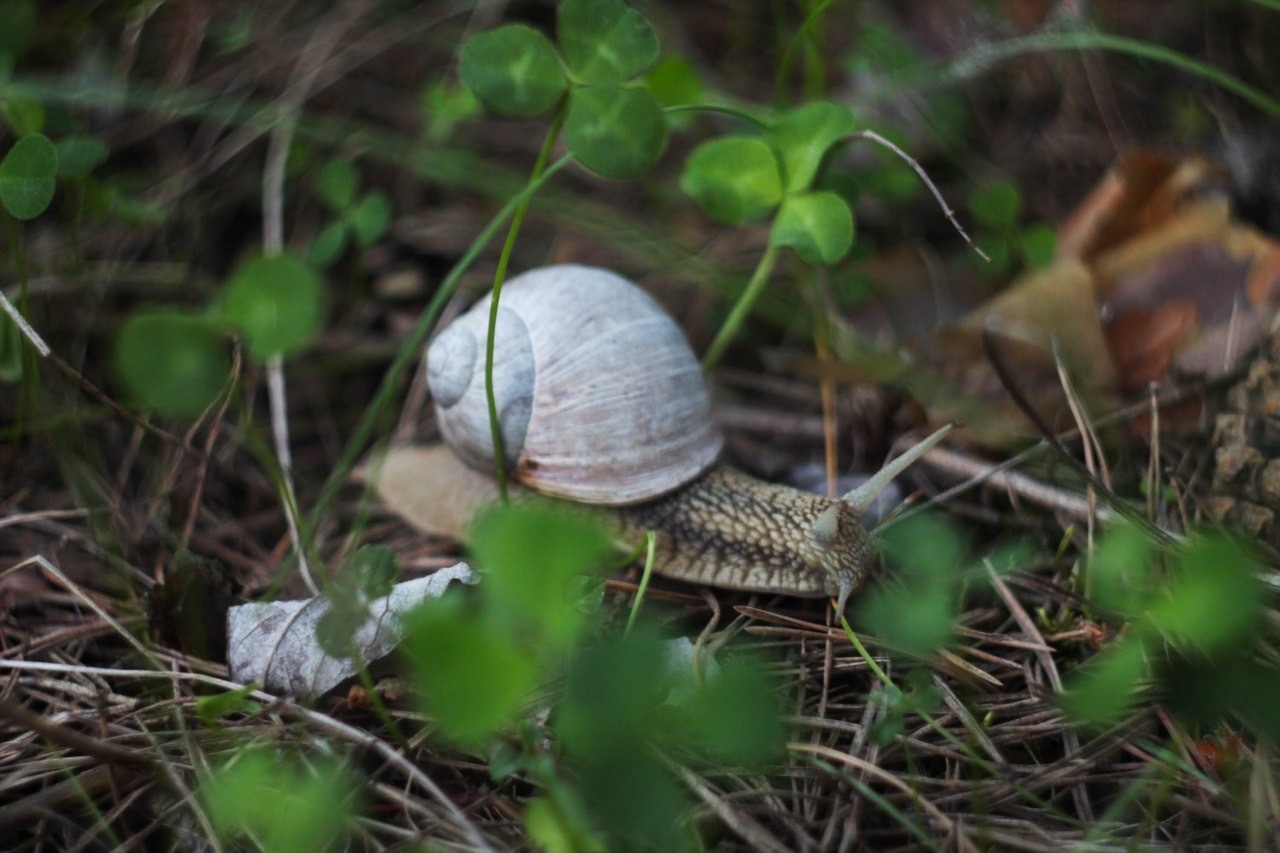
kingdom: Animalia
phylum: Mollusca
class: Gastropoda
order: Stylommatophora
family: Helicidae
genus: Helix
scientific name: Helix pomatia
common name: Roman snail
